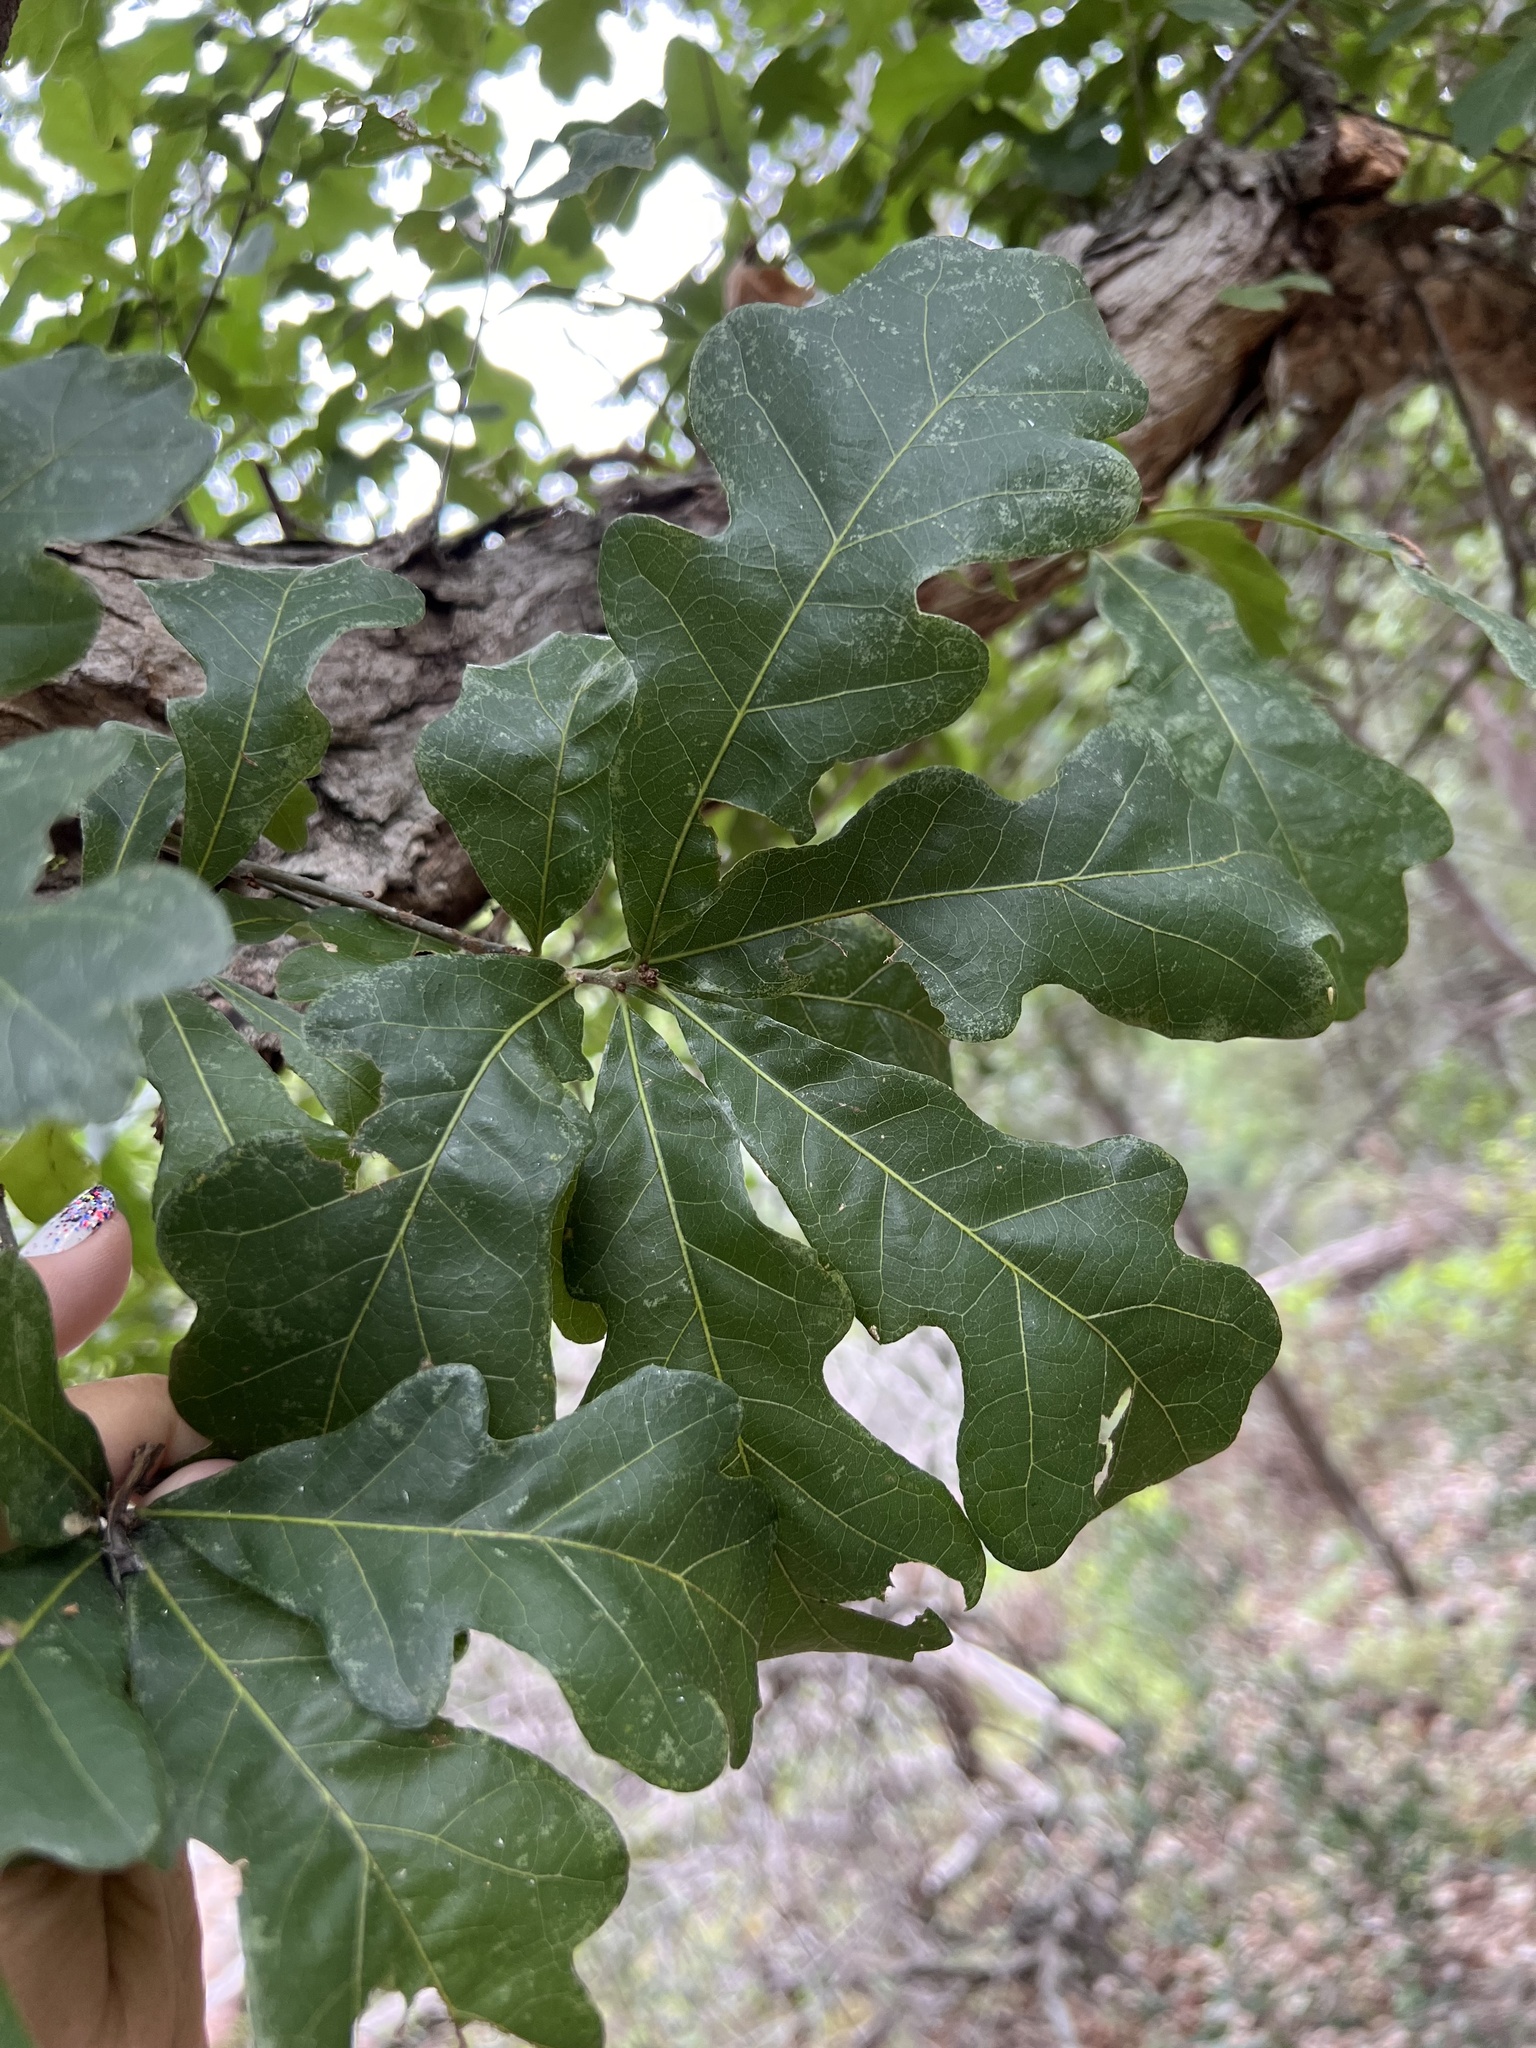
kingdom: Plantae
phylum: Tracheophyta
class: Magnoliopsida
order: Fagales
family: Fagaceae
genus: Quercus
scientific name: Quercus sinuata
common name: Durand oak
